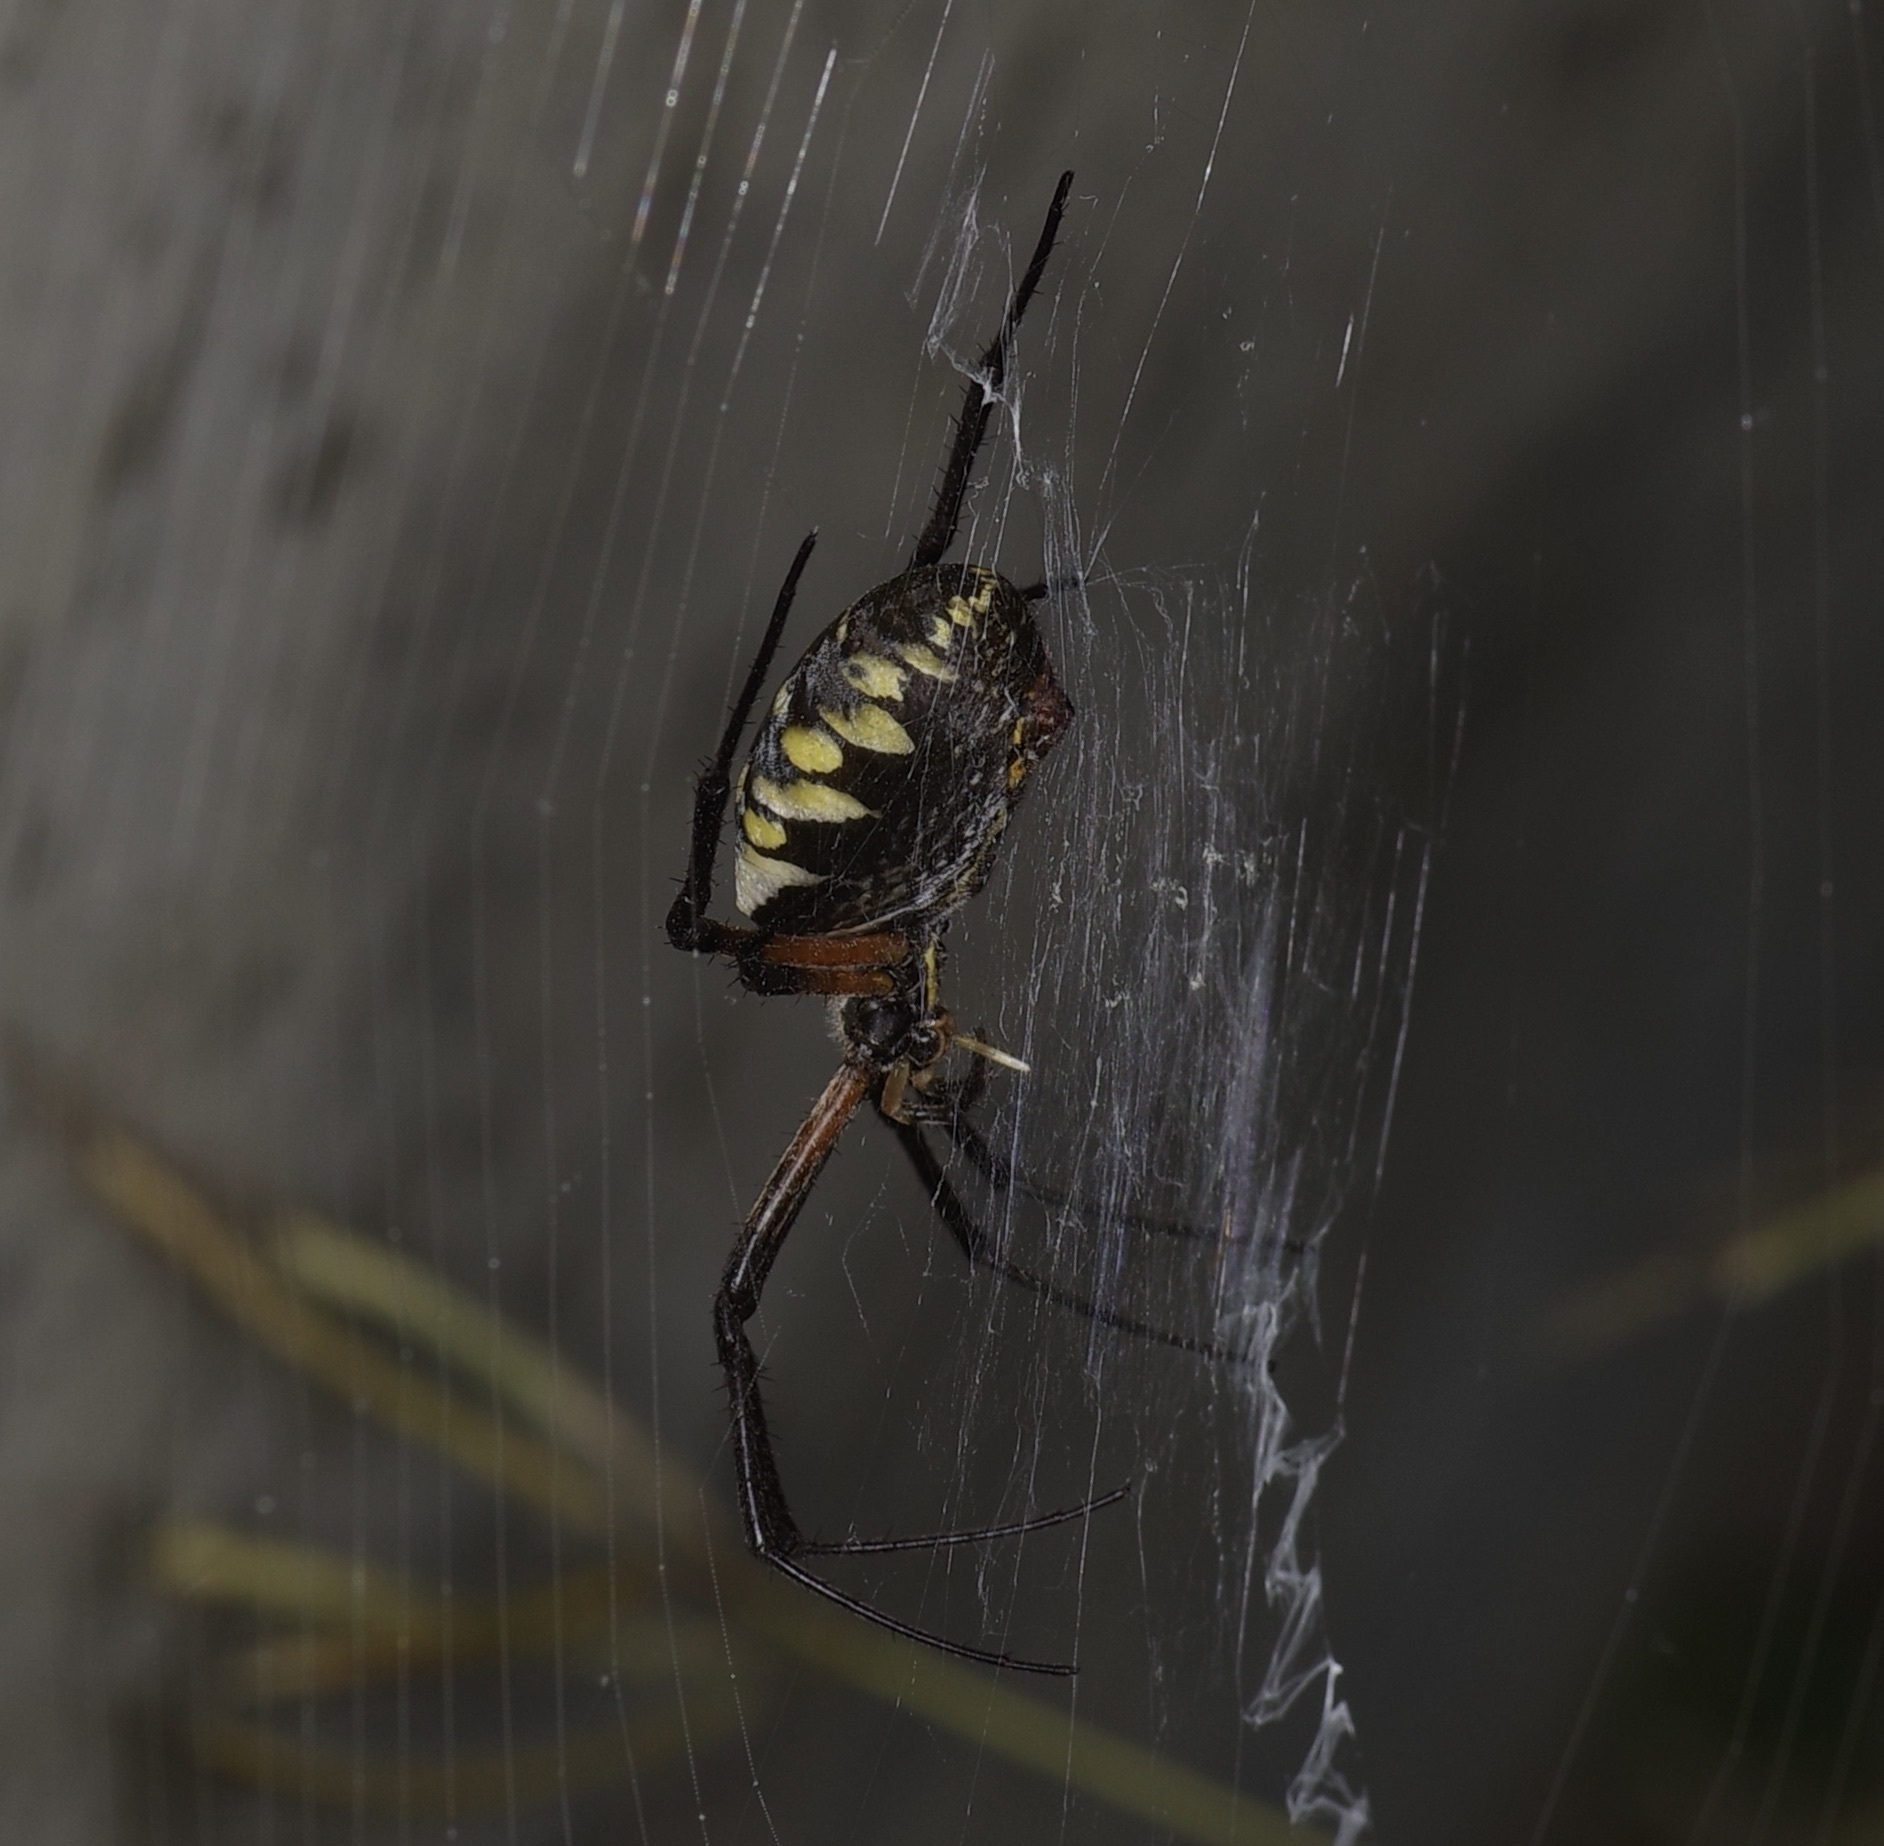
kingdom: Animalia
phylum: Arthropoda
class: Arachnida
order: Araneae
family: Araneidae
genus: Argiope
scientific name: Argiope aurantia
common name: Orb weavers
